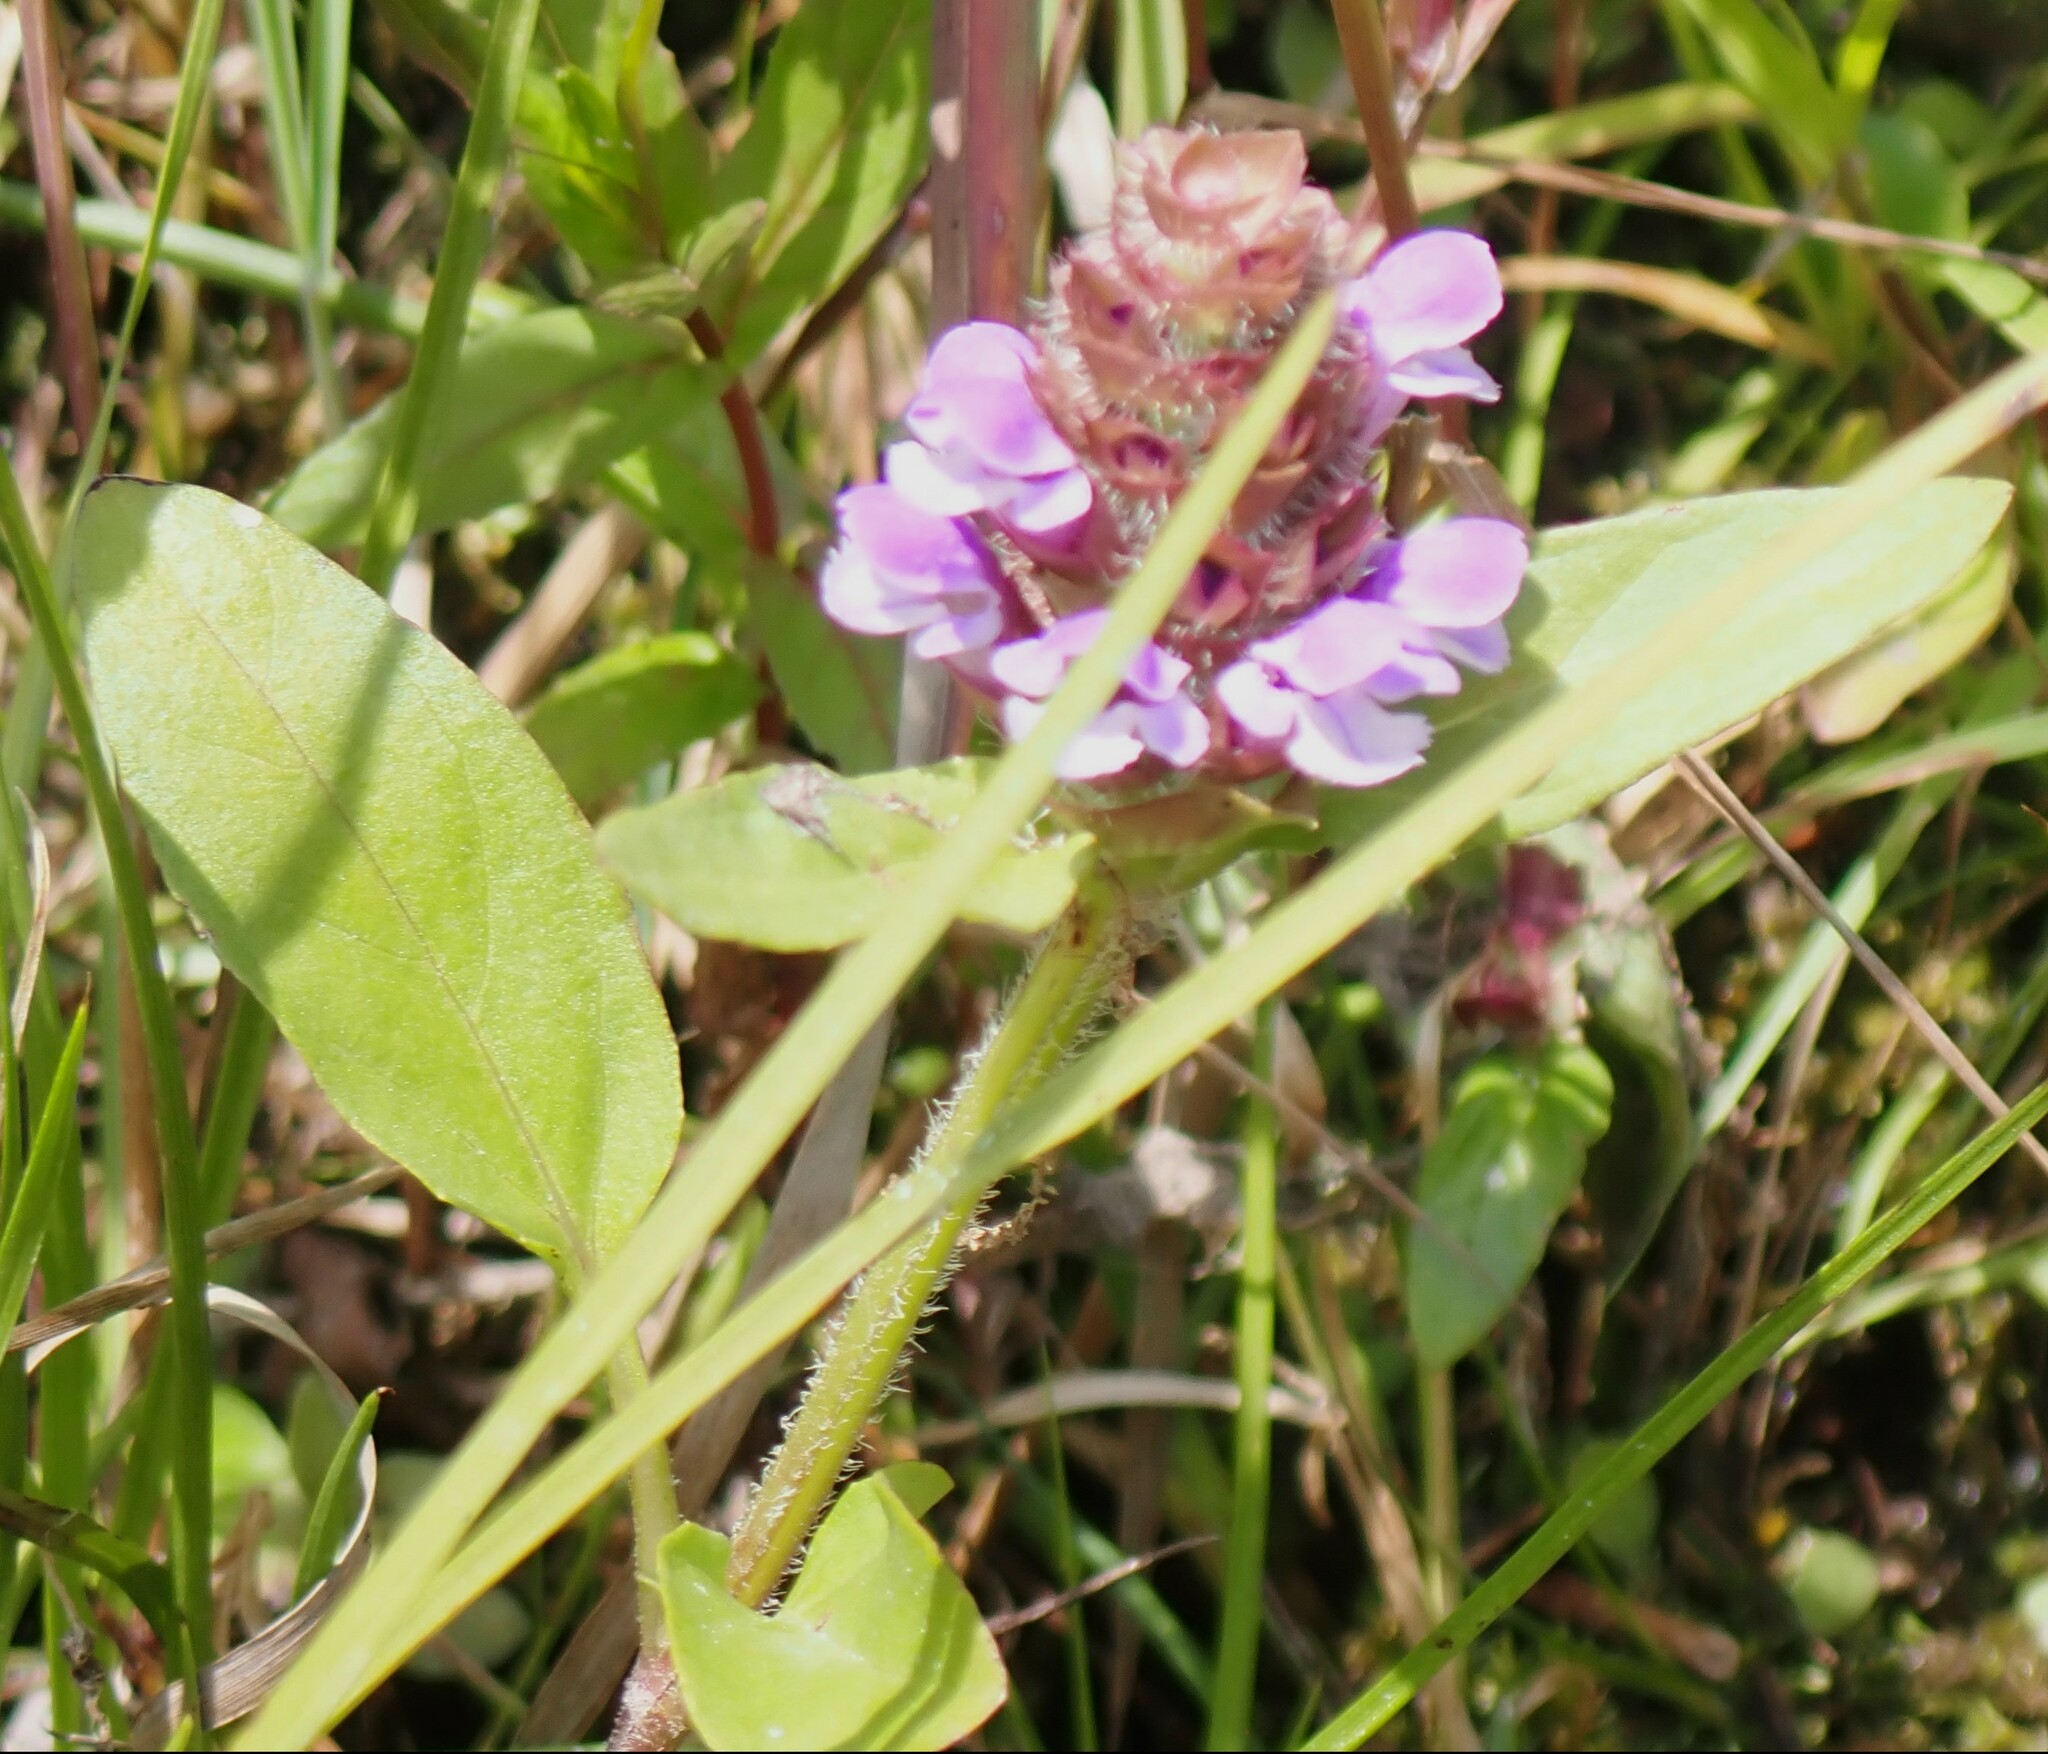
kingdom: Plantae
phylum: Tracheophyta
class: Magnoliopsida
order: Lamiales
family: Lamiaceae
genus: Prunella
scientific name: Prunella vulgaris
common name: Heal-all
